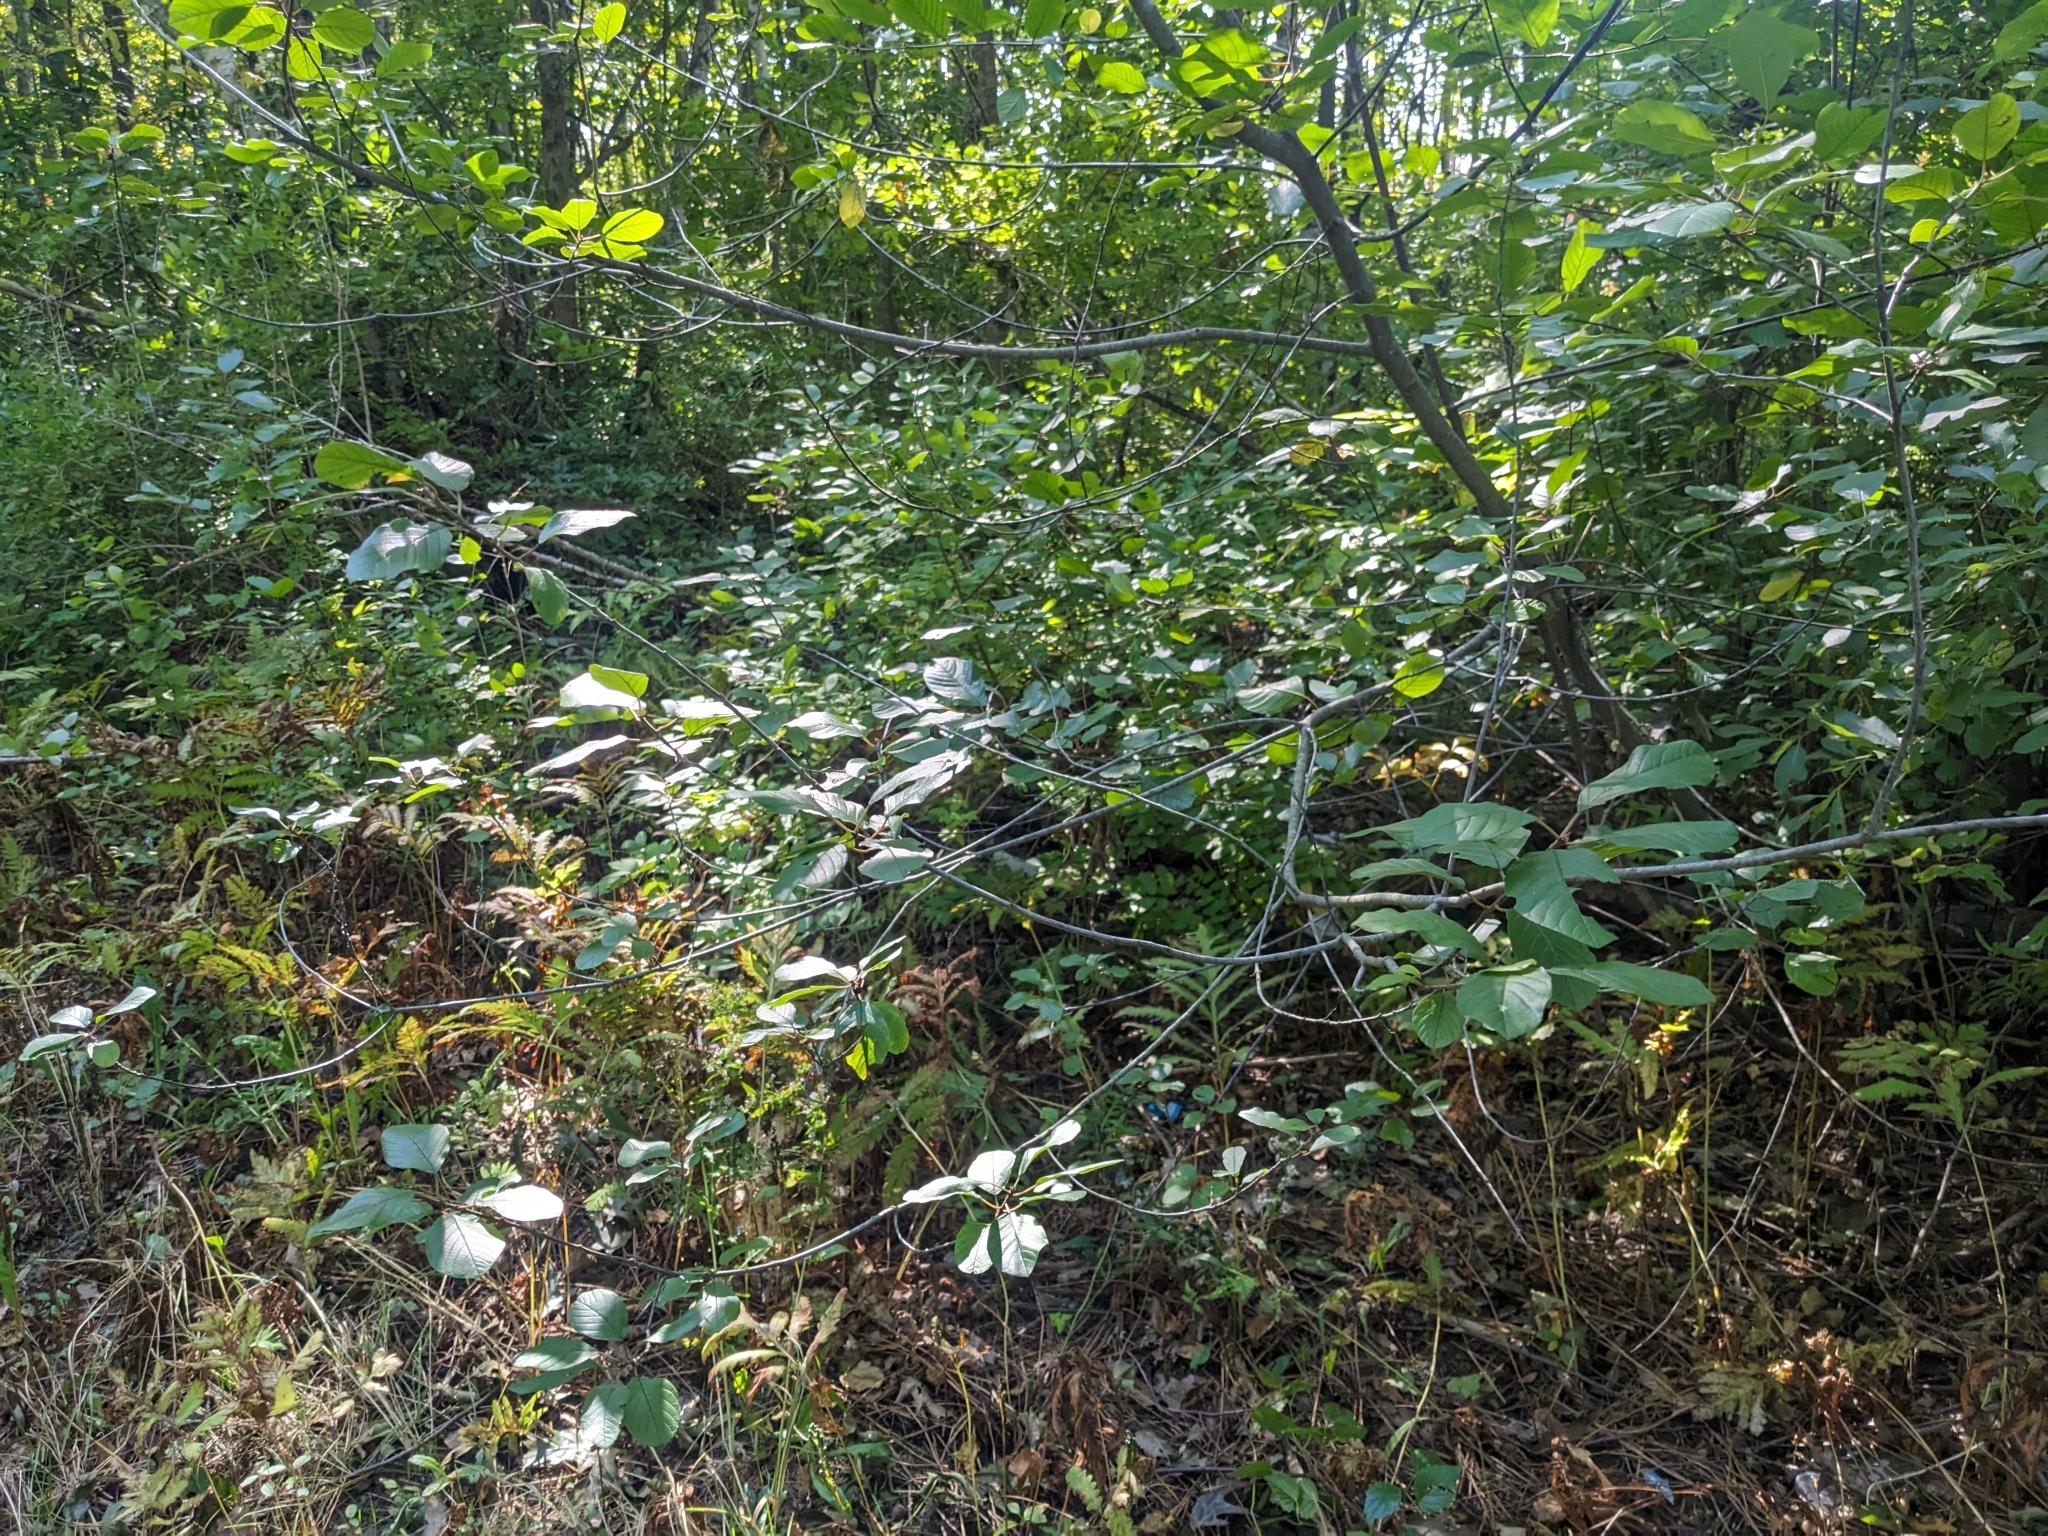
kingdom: Plantae
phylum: Tracheophyta
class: Magnoliopsida
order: Rosales
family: Rhamnaceae
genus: Frangula
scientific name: Frangula alnus
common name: Alder buckthorn
